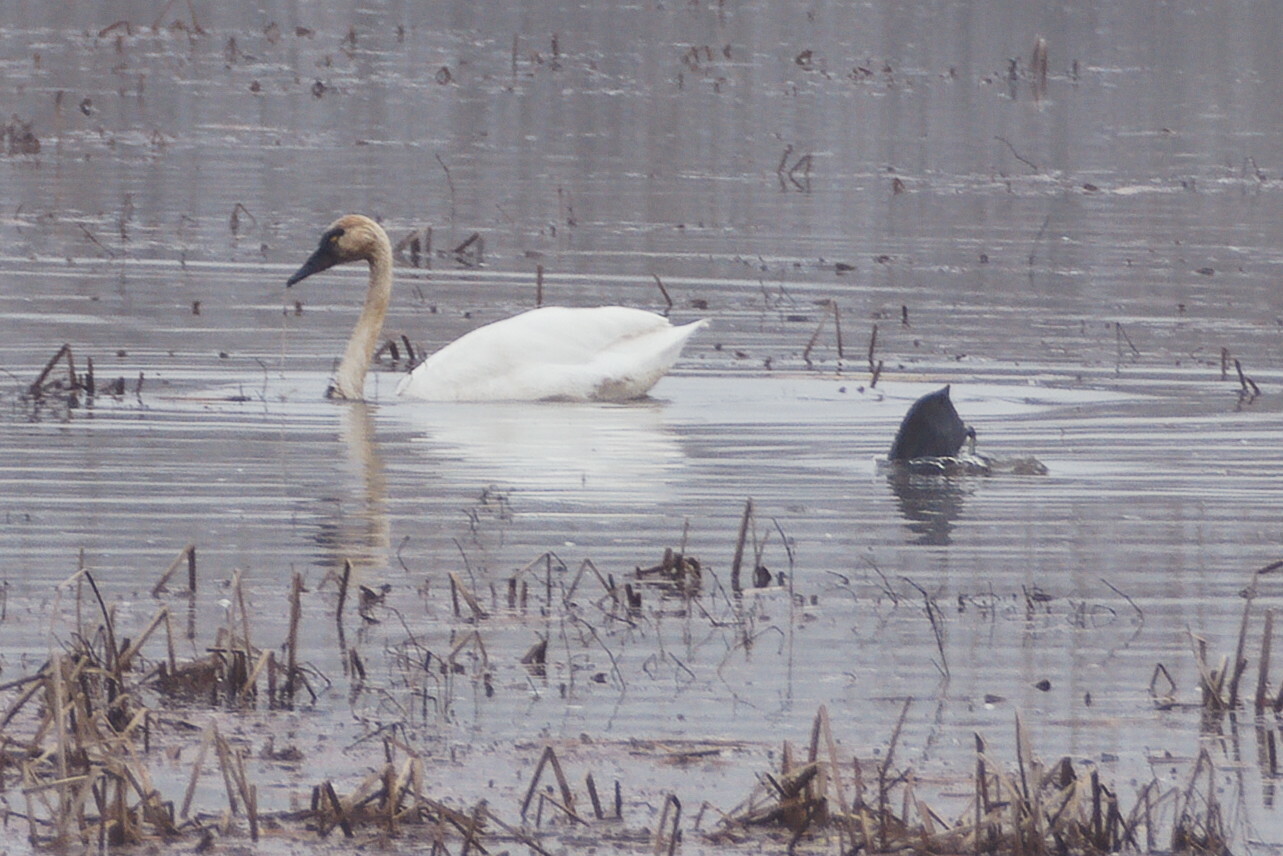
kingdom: Animalia
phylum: Chordata
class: Aves
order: Anseriformes
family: Anatidae
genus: Cygnus
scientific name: Cygnus columbianus
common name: Tundra swan
